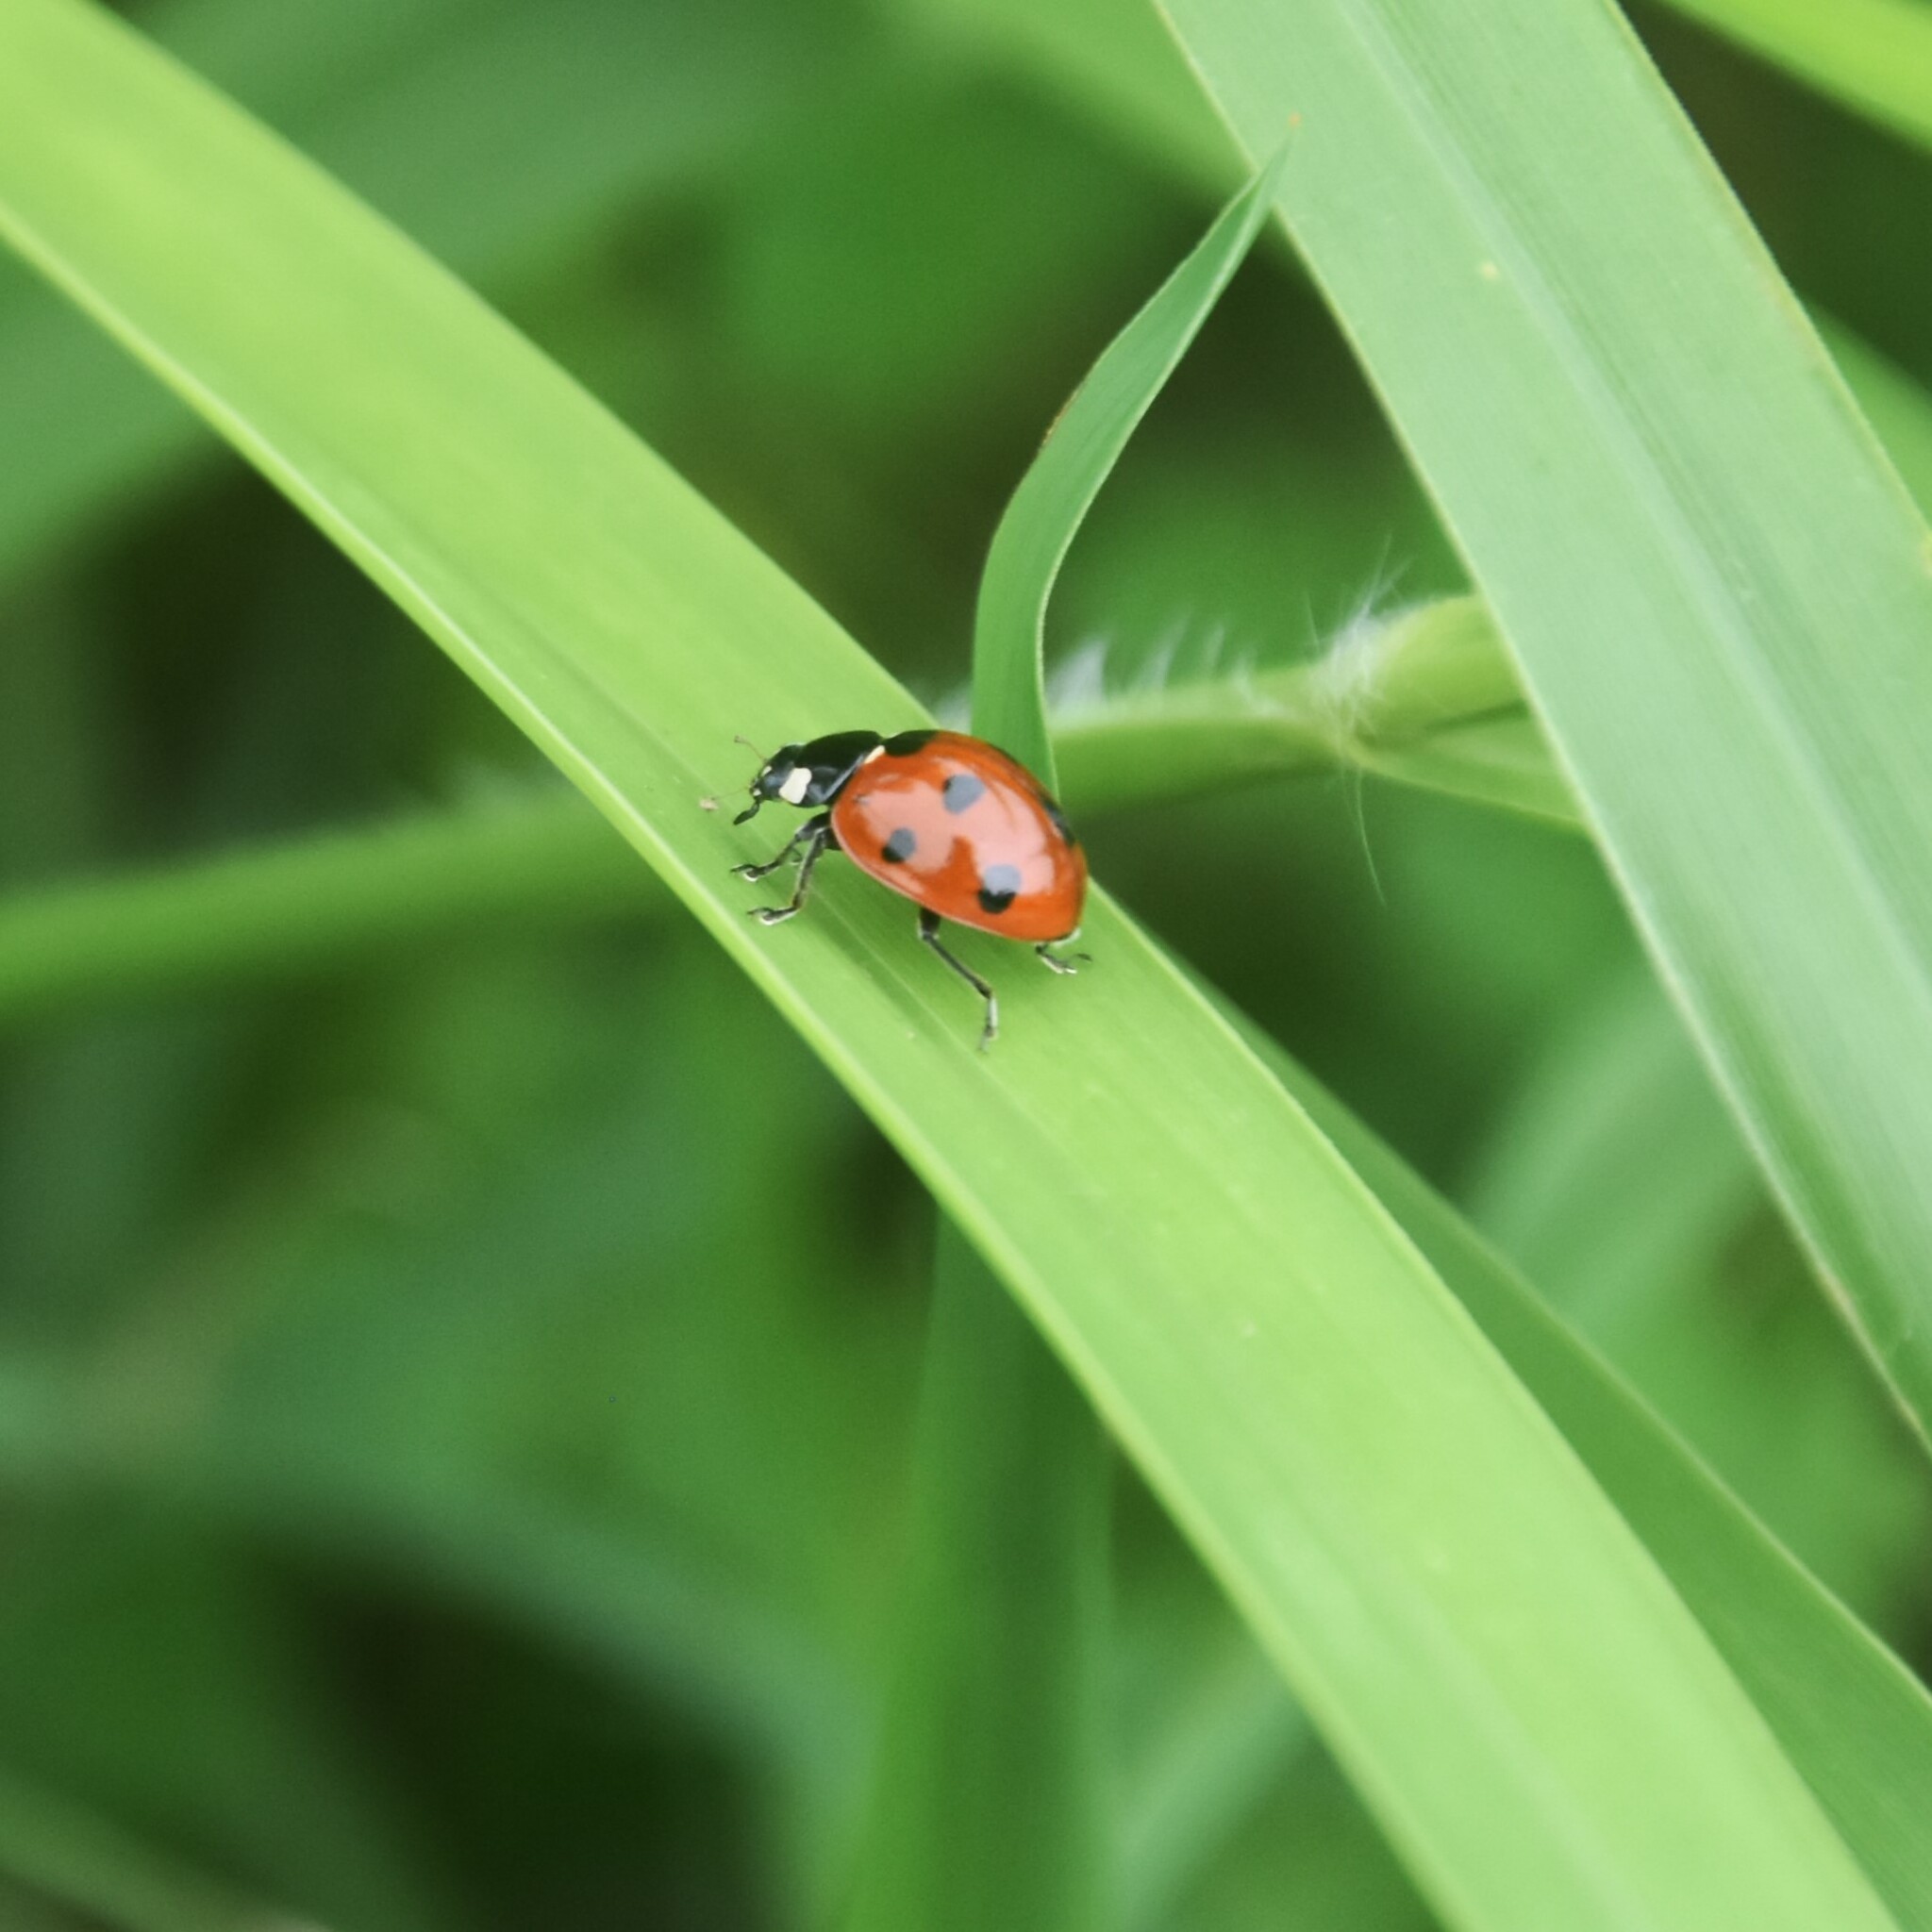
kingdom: Animalia
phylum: Arthropoda
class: Insecta
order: Coleoptera
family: Coccinellidae
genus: Coccinella
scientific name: Coccinella septempunctata
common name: Sevenspotted lady beetle
